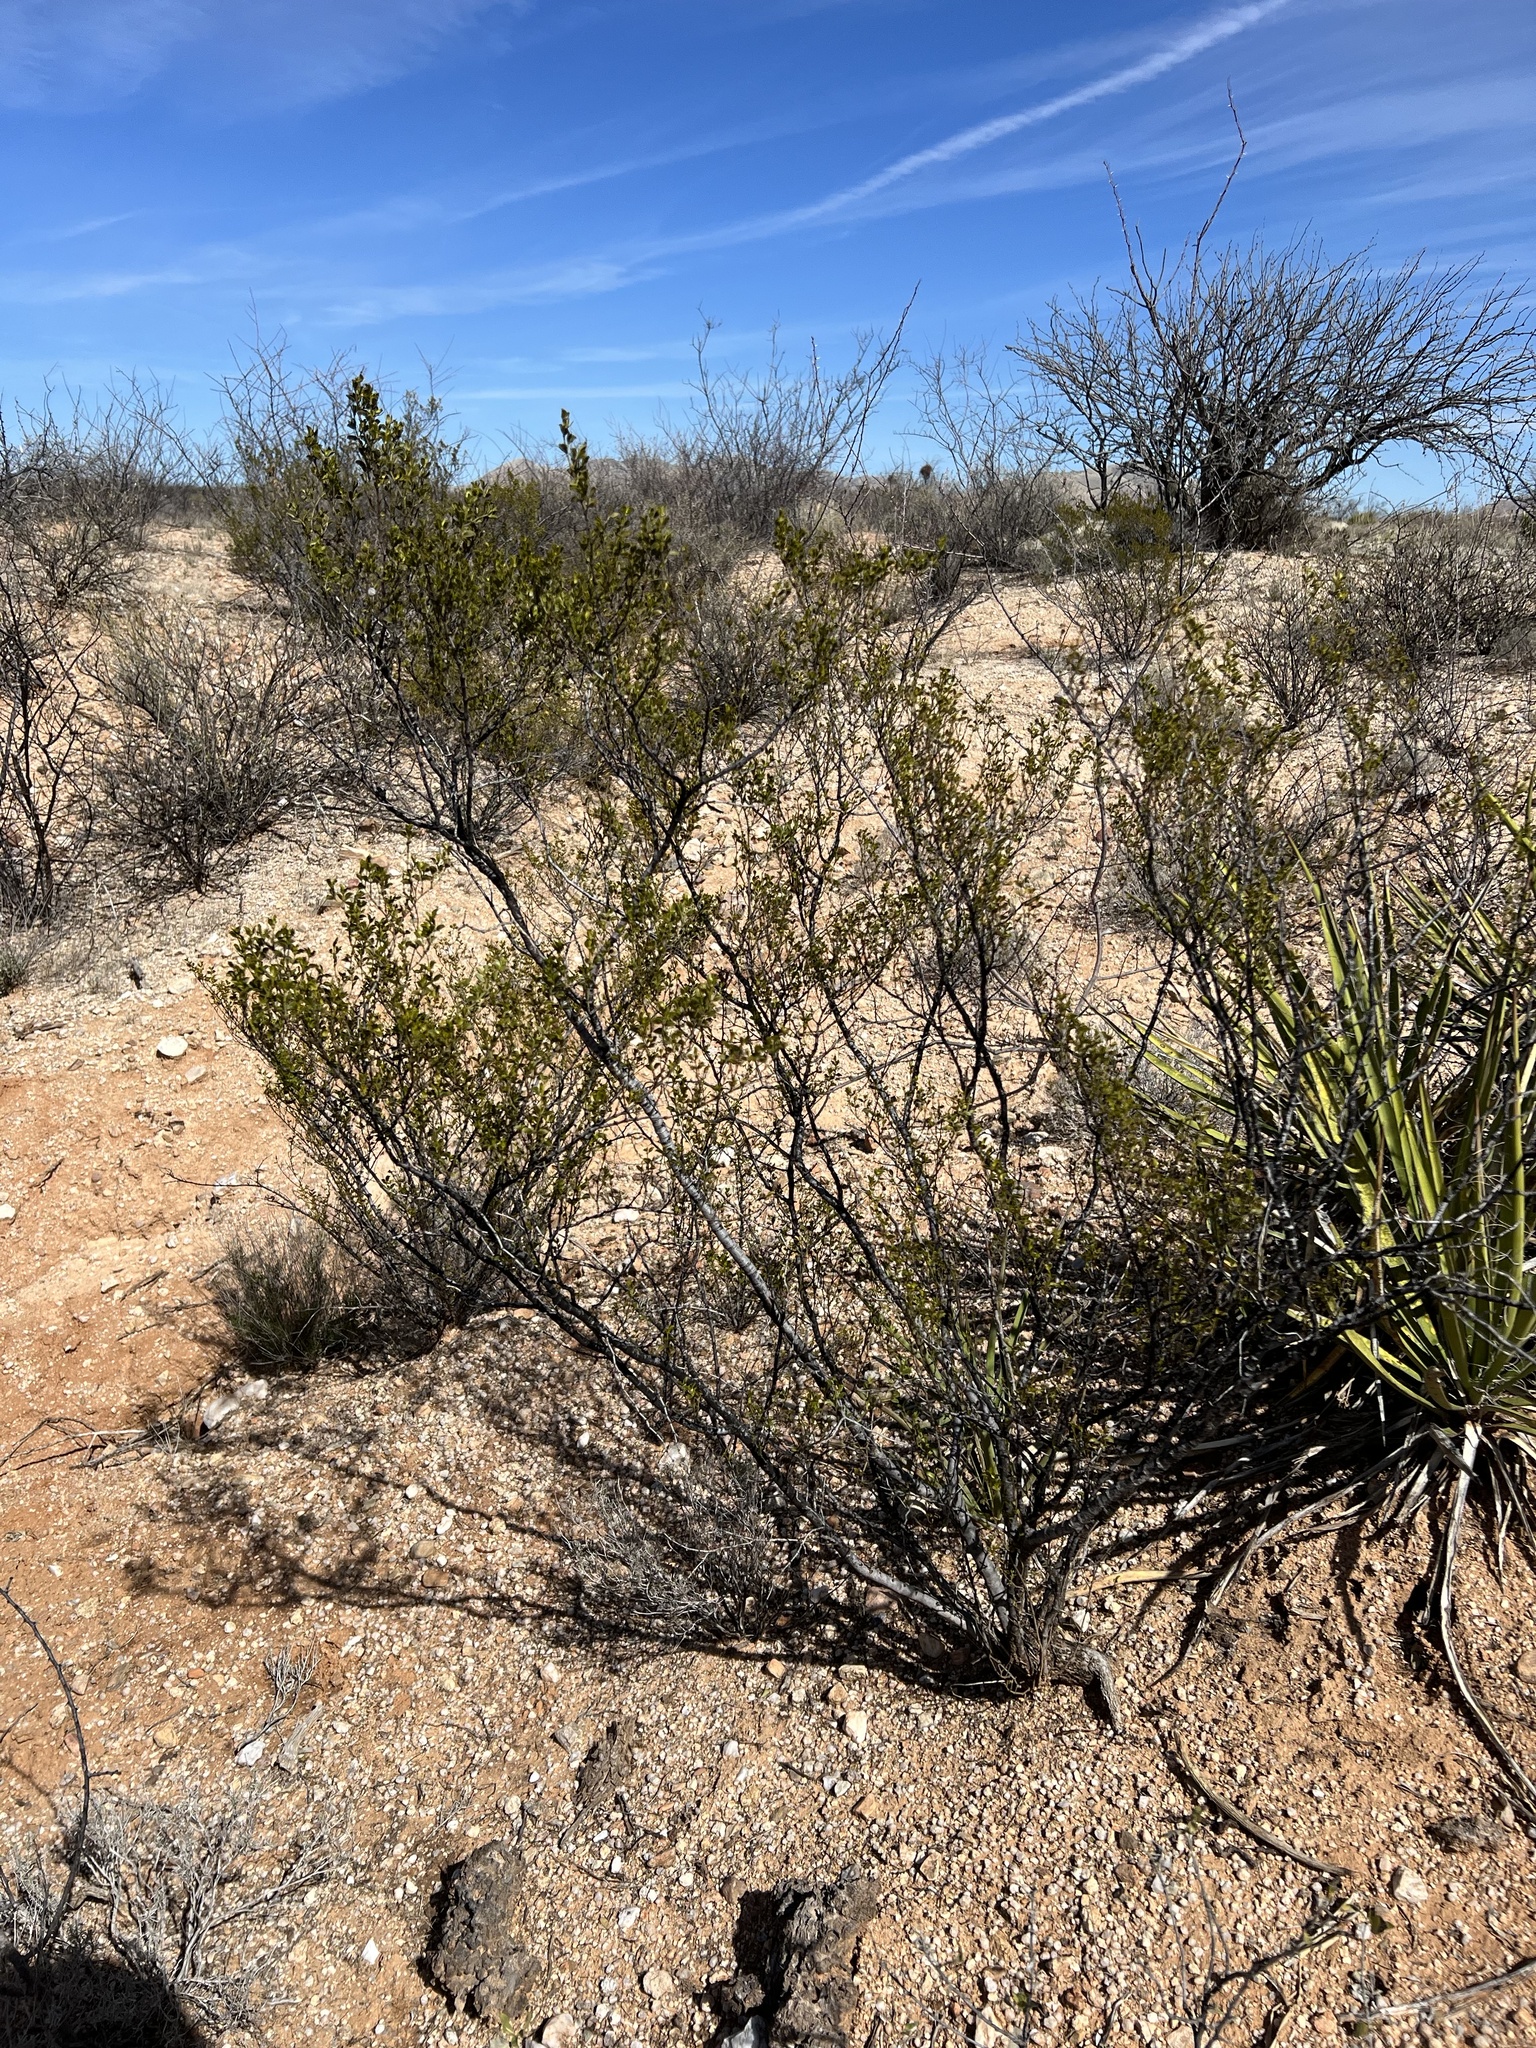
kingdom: Plantae
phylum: Tracheophyta
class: Magnoliopsida
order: Zygophyllales
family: Zygophyllaceae
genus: Larrea
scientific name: Larrea tridentata
